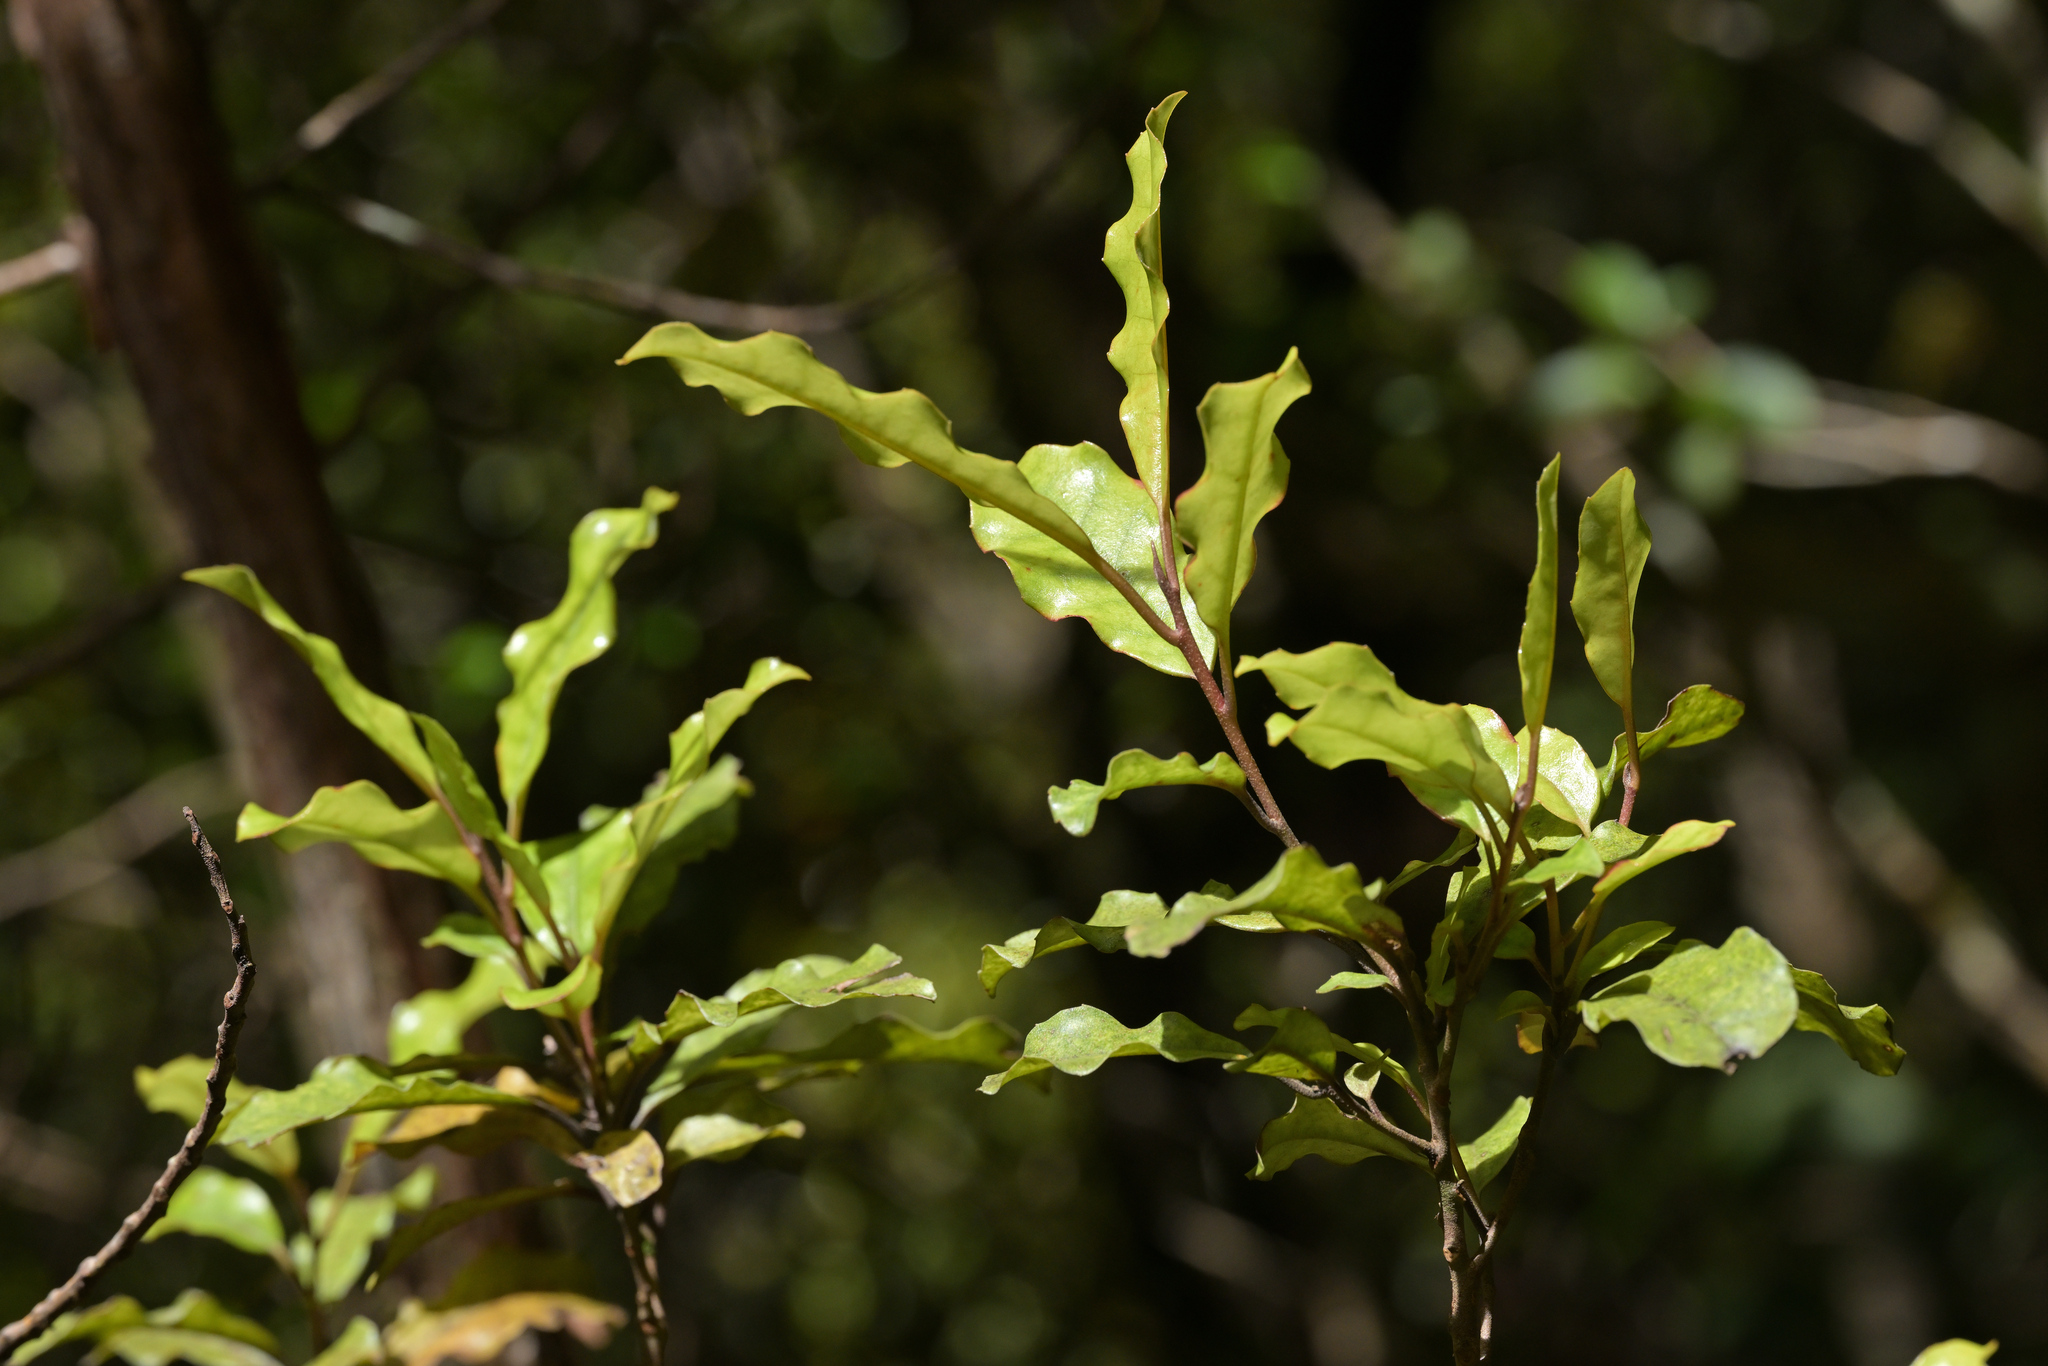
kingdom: Plantae
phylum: Tracheophyta
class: Magnoliopsida
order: Ericales
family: Primulaceae
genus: Myrsine
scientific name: Myrsine australis
